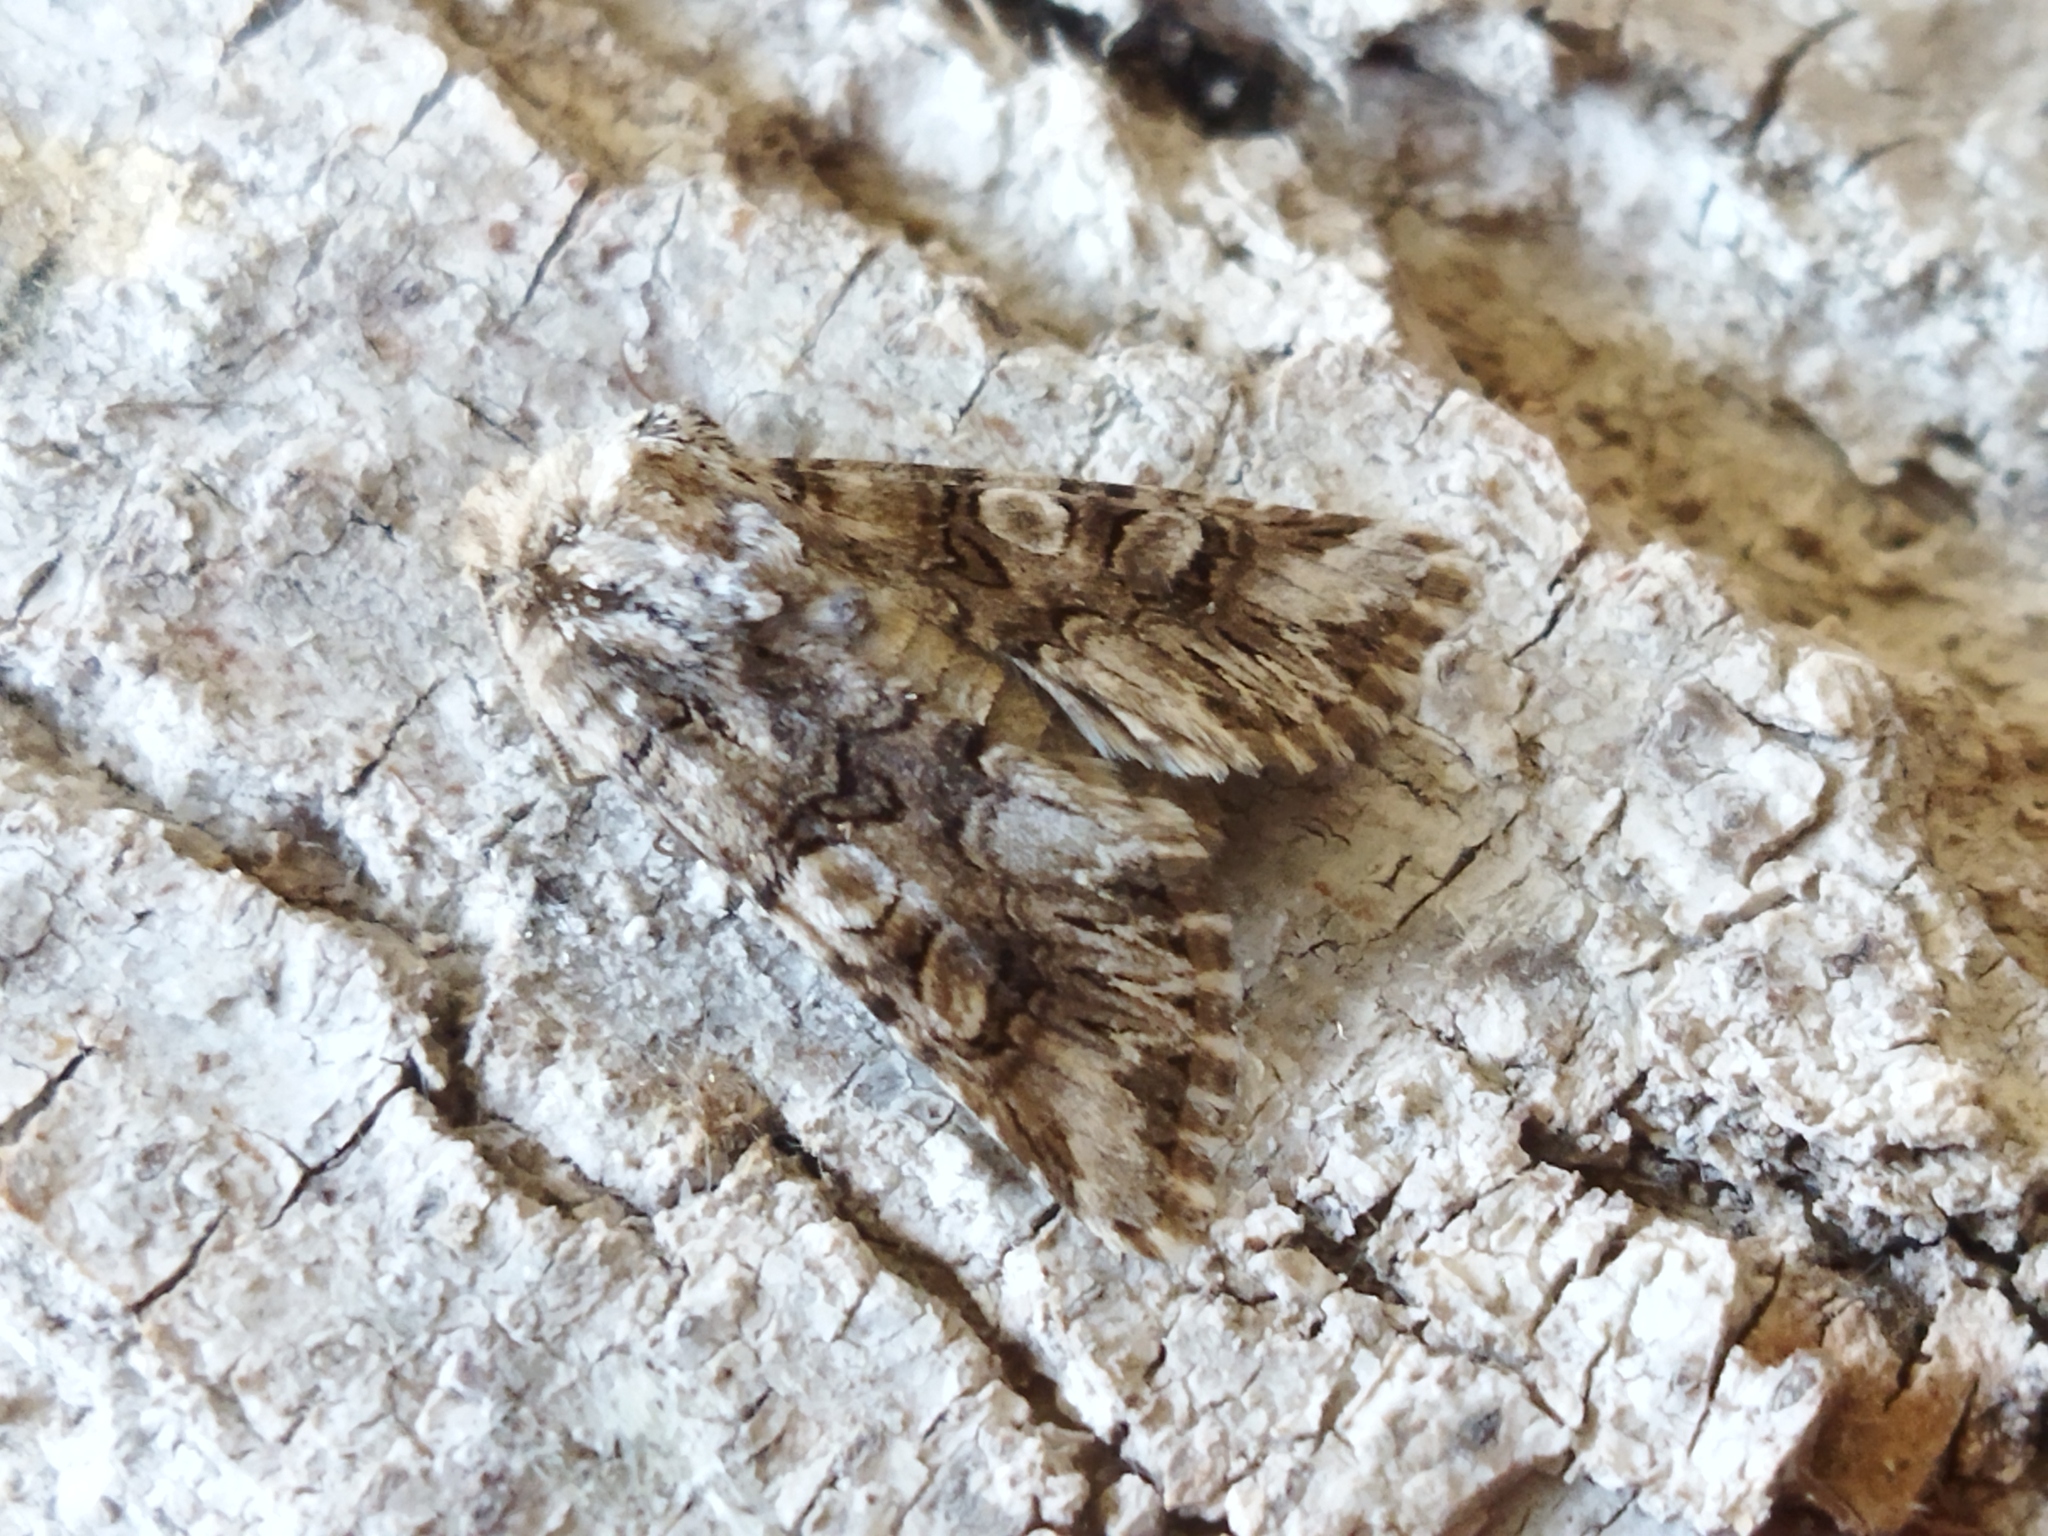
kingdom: Animalia
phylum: Arthropoda
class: Insecta
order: Lepidoptera
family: Noctuidae
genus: Hadena
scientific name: Hadena silenes
